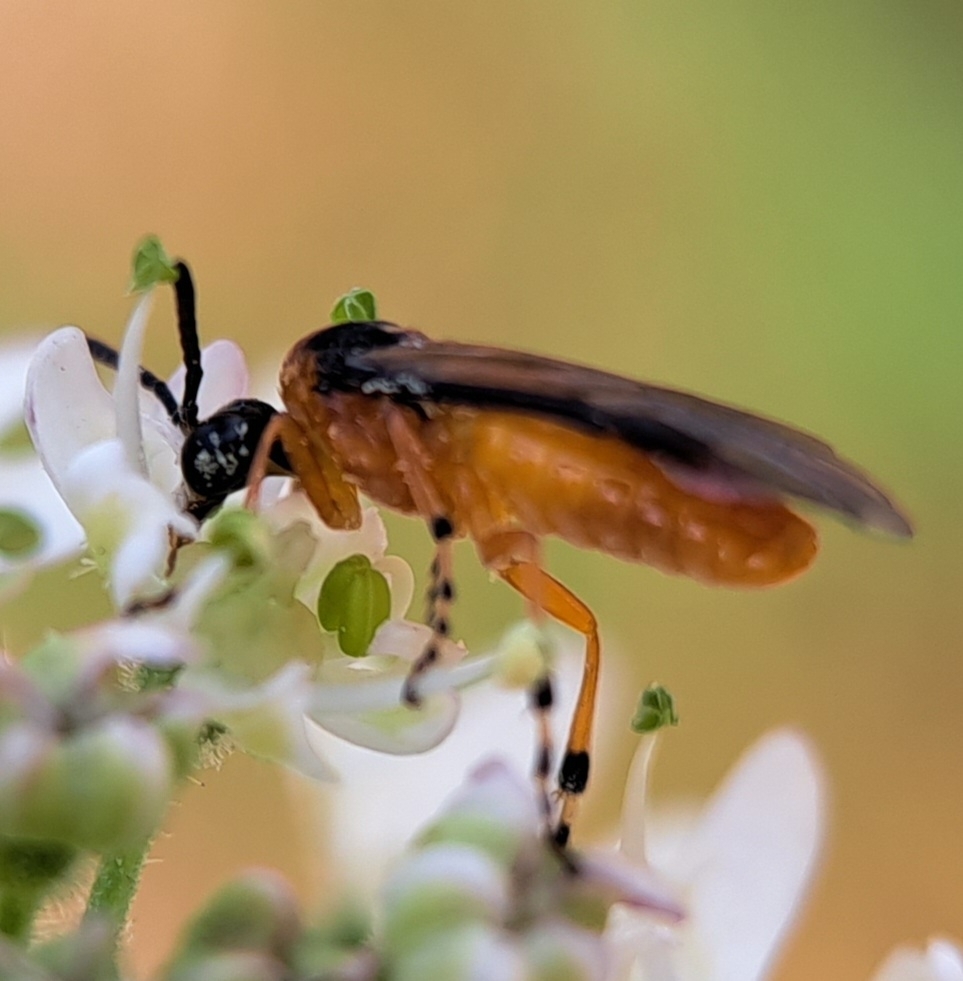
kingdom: Animalia
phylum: Arthropoda
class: Insecta
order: Hymenoptera
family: Tenthredinidae
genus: Athalia
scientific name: Athalia rosae
